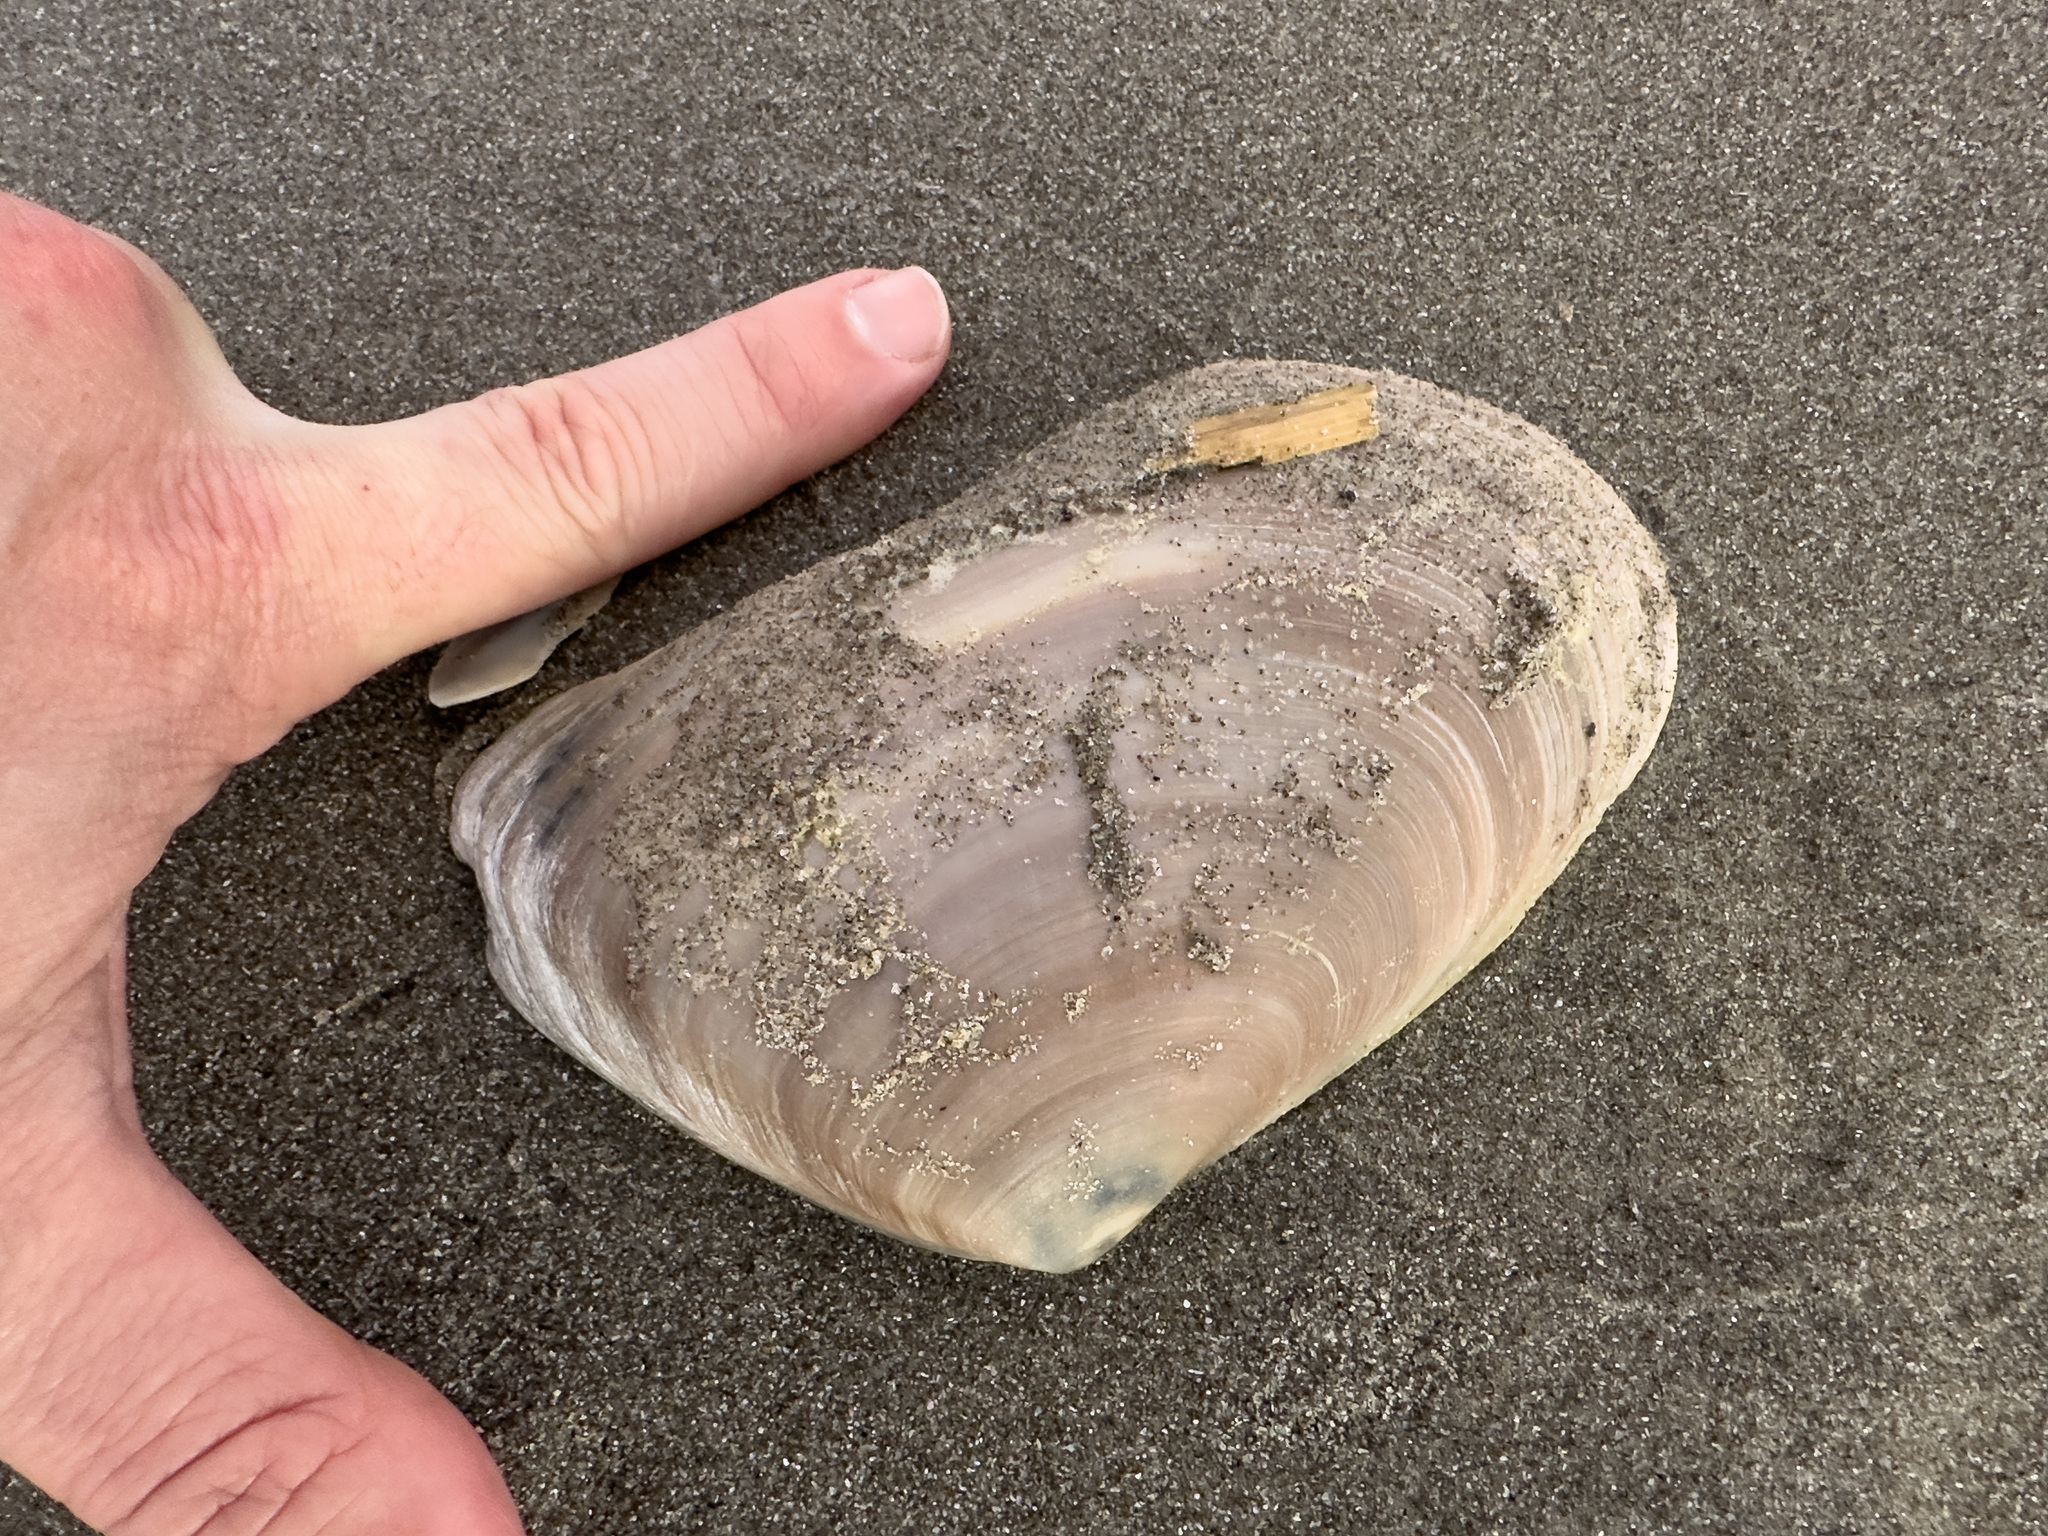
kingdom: Animalia
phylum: Mollusca
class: Bivalvia
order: Venerida
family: Mesodesmatidae
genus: Paphies
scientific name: Paphies ventricosa
